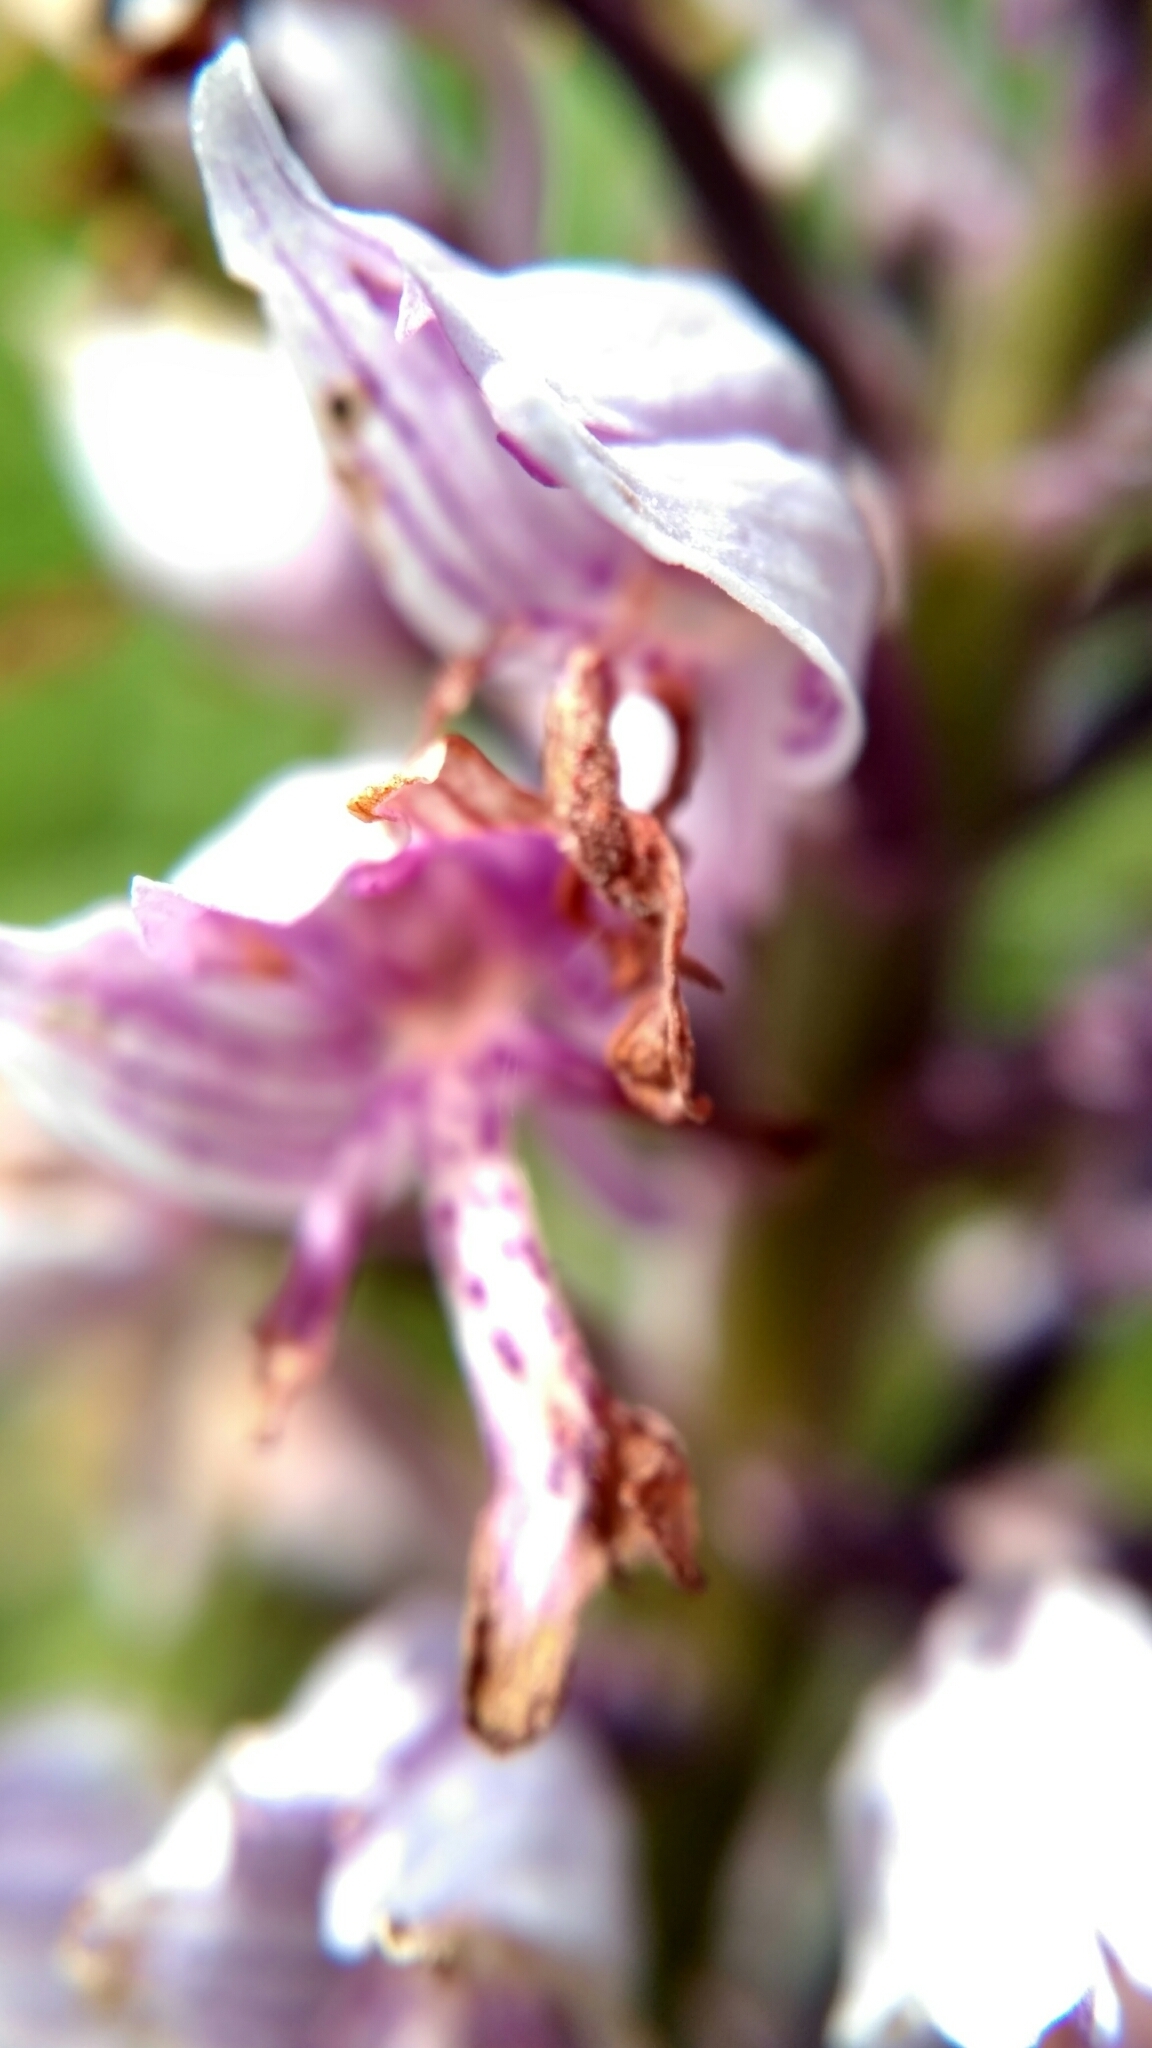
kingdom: Plantae
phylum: Tracheophyta
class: Liliopsida
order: Asparagales
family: Orchidaceae
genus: Orchis
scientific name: Orchis militaris
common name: Military orchid
